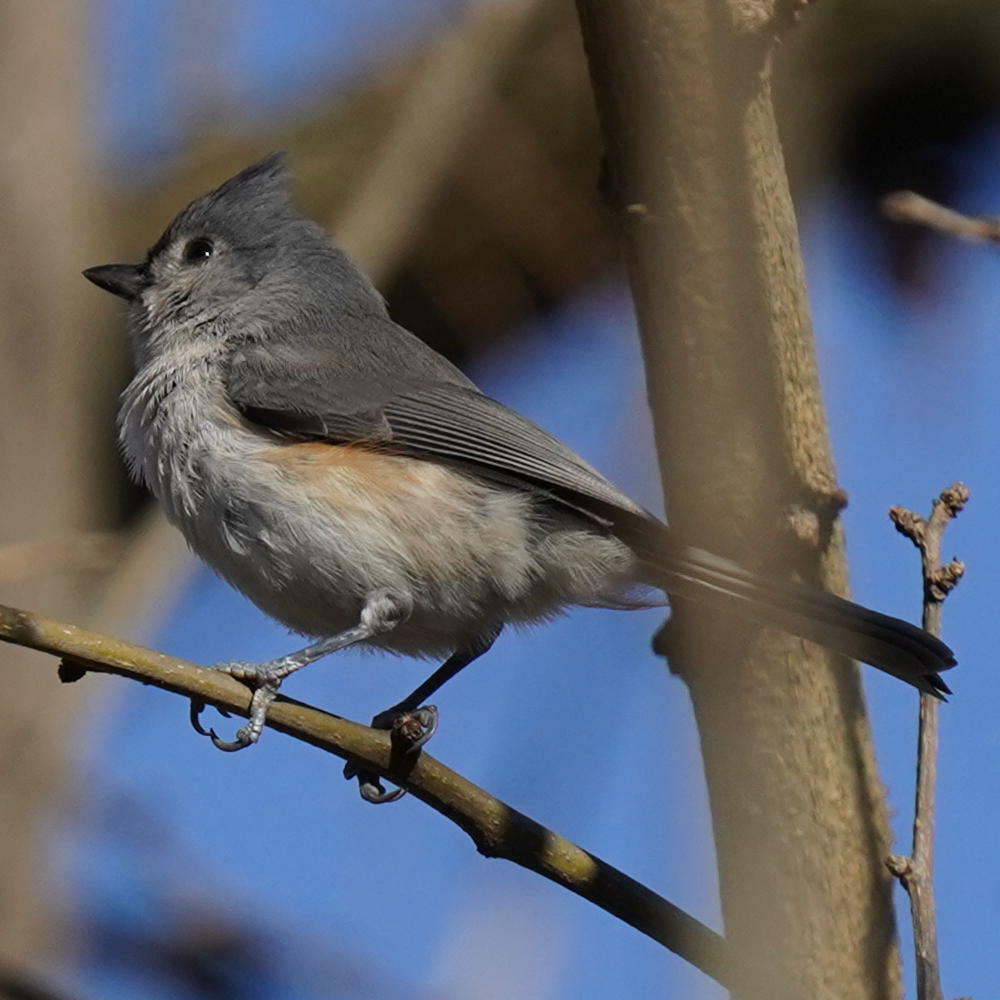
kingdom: Animalia
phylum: Chordata
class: Aves
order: Passeriformes
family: Paridae
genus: Baeolophus
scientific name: Baeolophus bicolor
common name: Tufted titmouse
